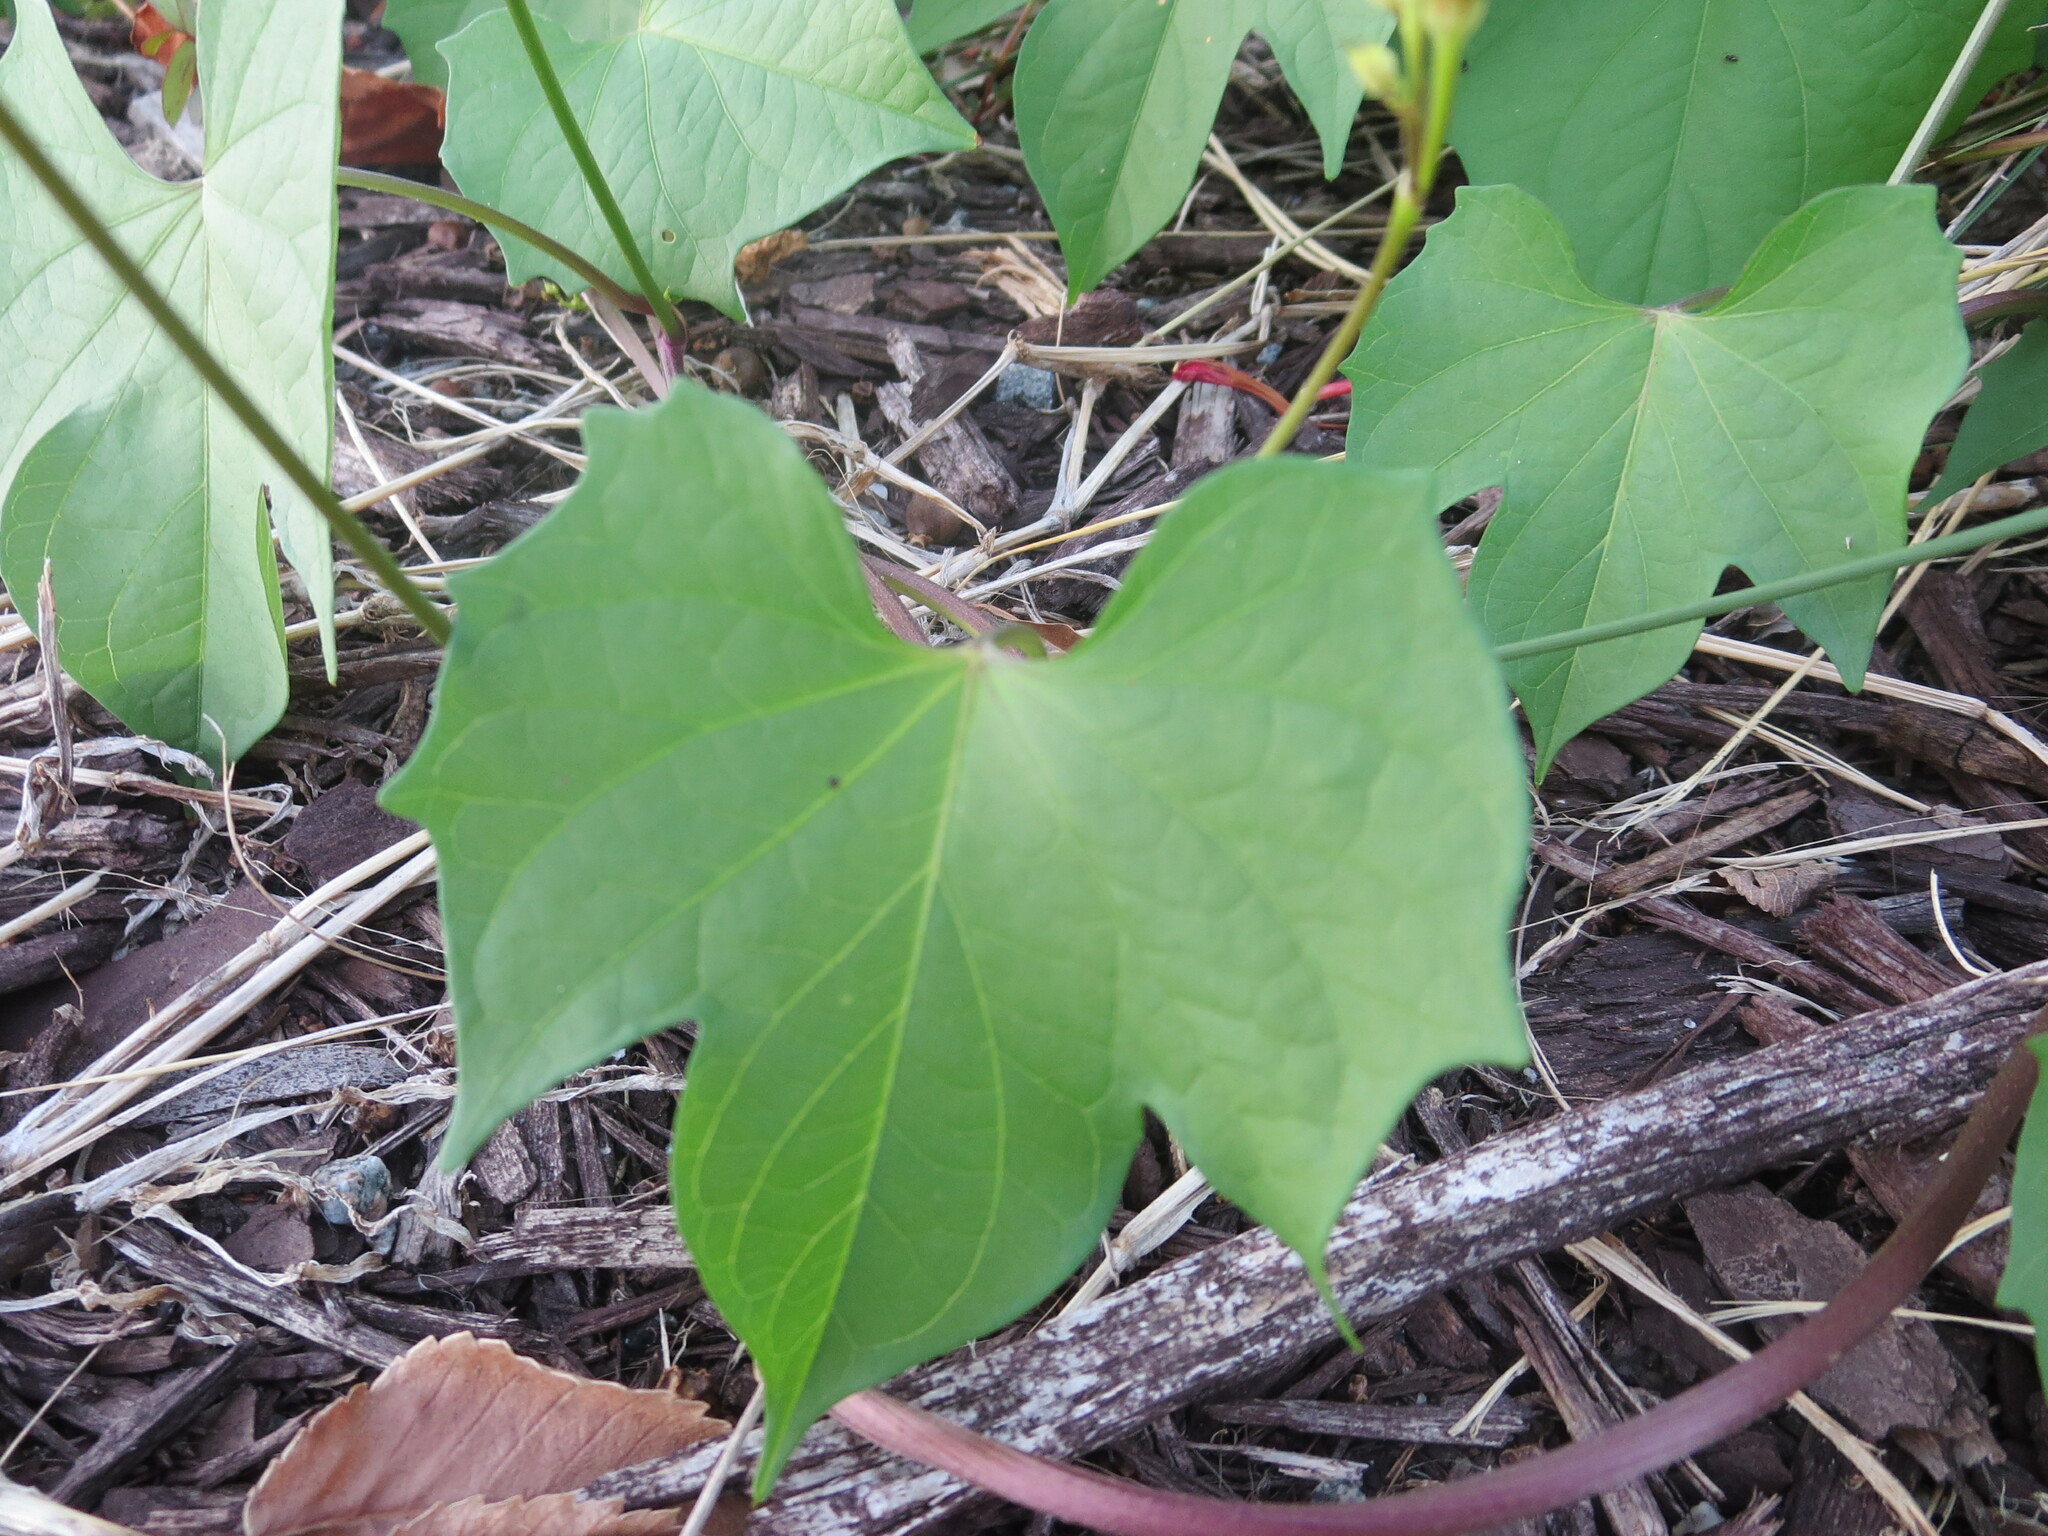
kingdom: Plantae
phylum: Tracheophyta
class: Magnoliopsida
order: Solanales
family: Convolvulaceae
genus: Ipomoea
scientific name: Ipomoea hederifolia
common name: Ivy-leaf morning-glory
